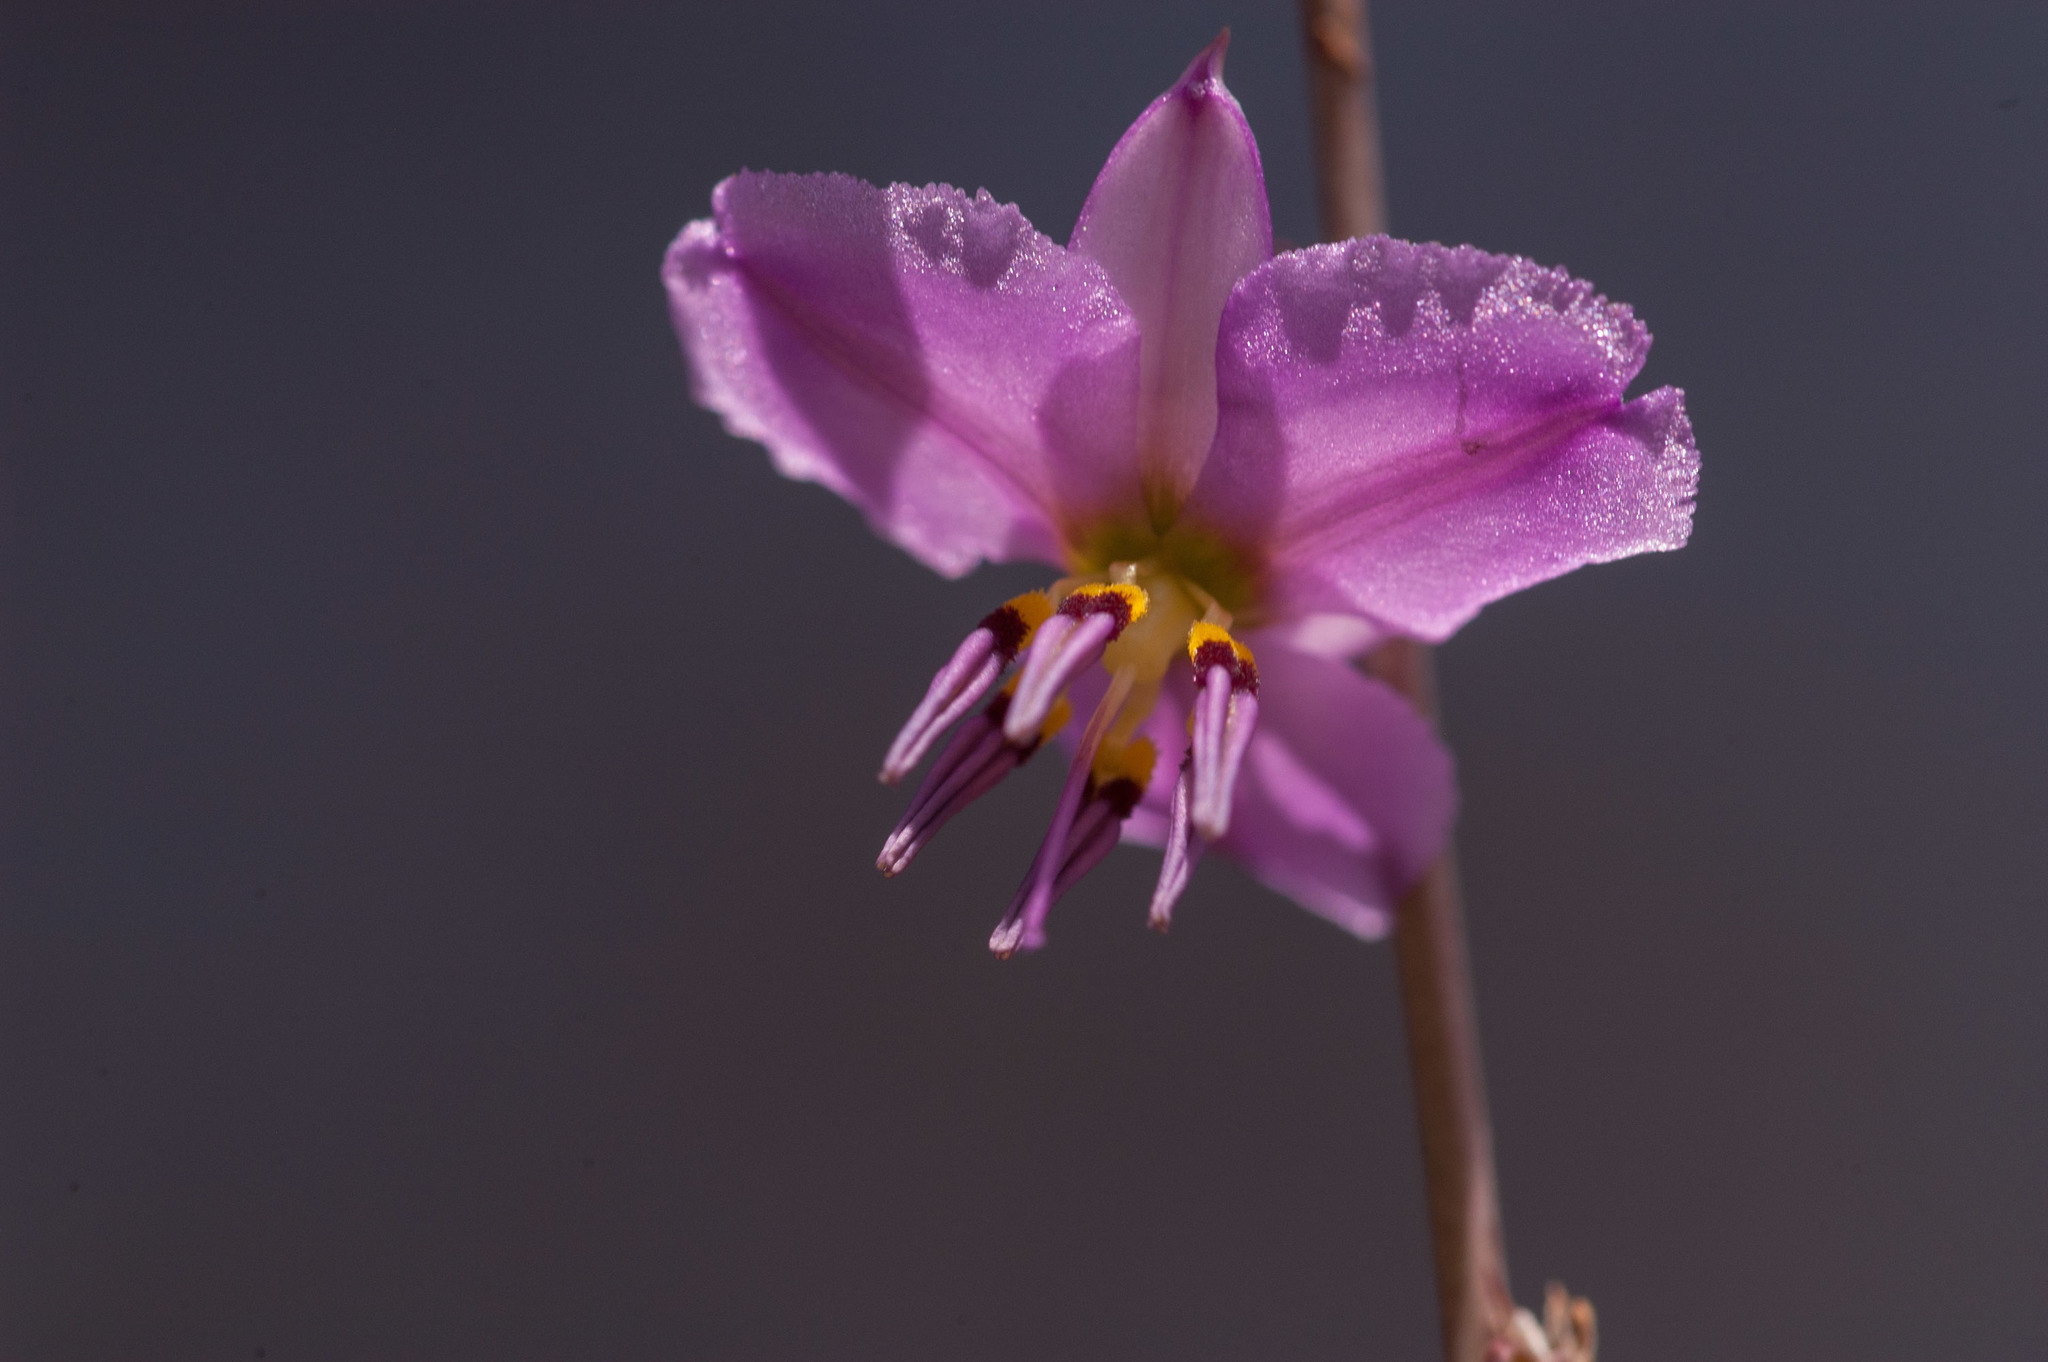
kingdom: Plantae
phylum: Tracheophyta
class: Liliopsida
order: Asparagales
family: Asparagaceae
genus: Dichopogon
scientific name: Dichopogon fimbriatus
